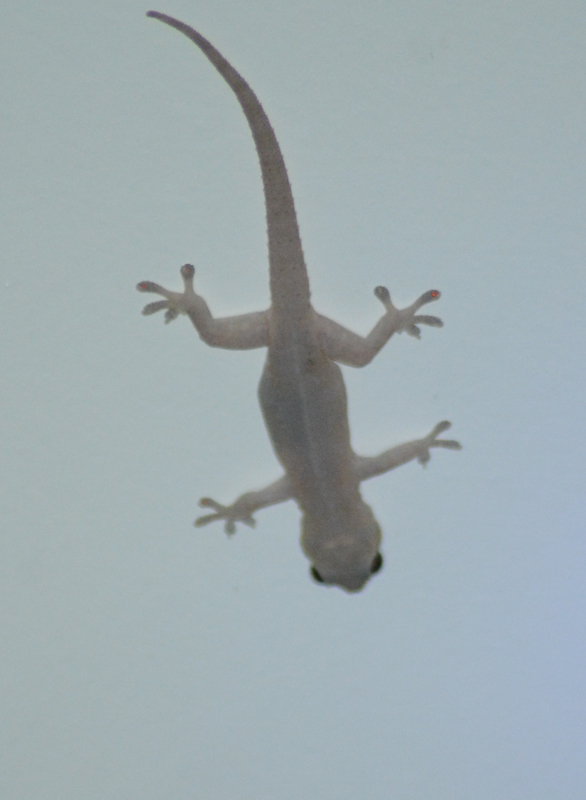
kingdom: Animalia
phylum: Chordata
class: Squamata
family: Gekkonidae
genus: Hemidactylus
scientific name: Hemidactylus frenatus
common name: Common house gecko
